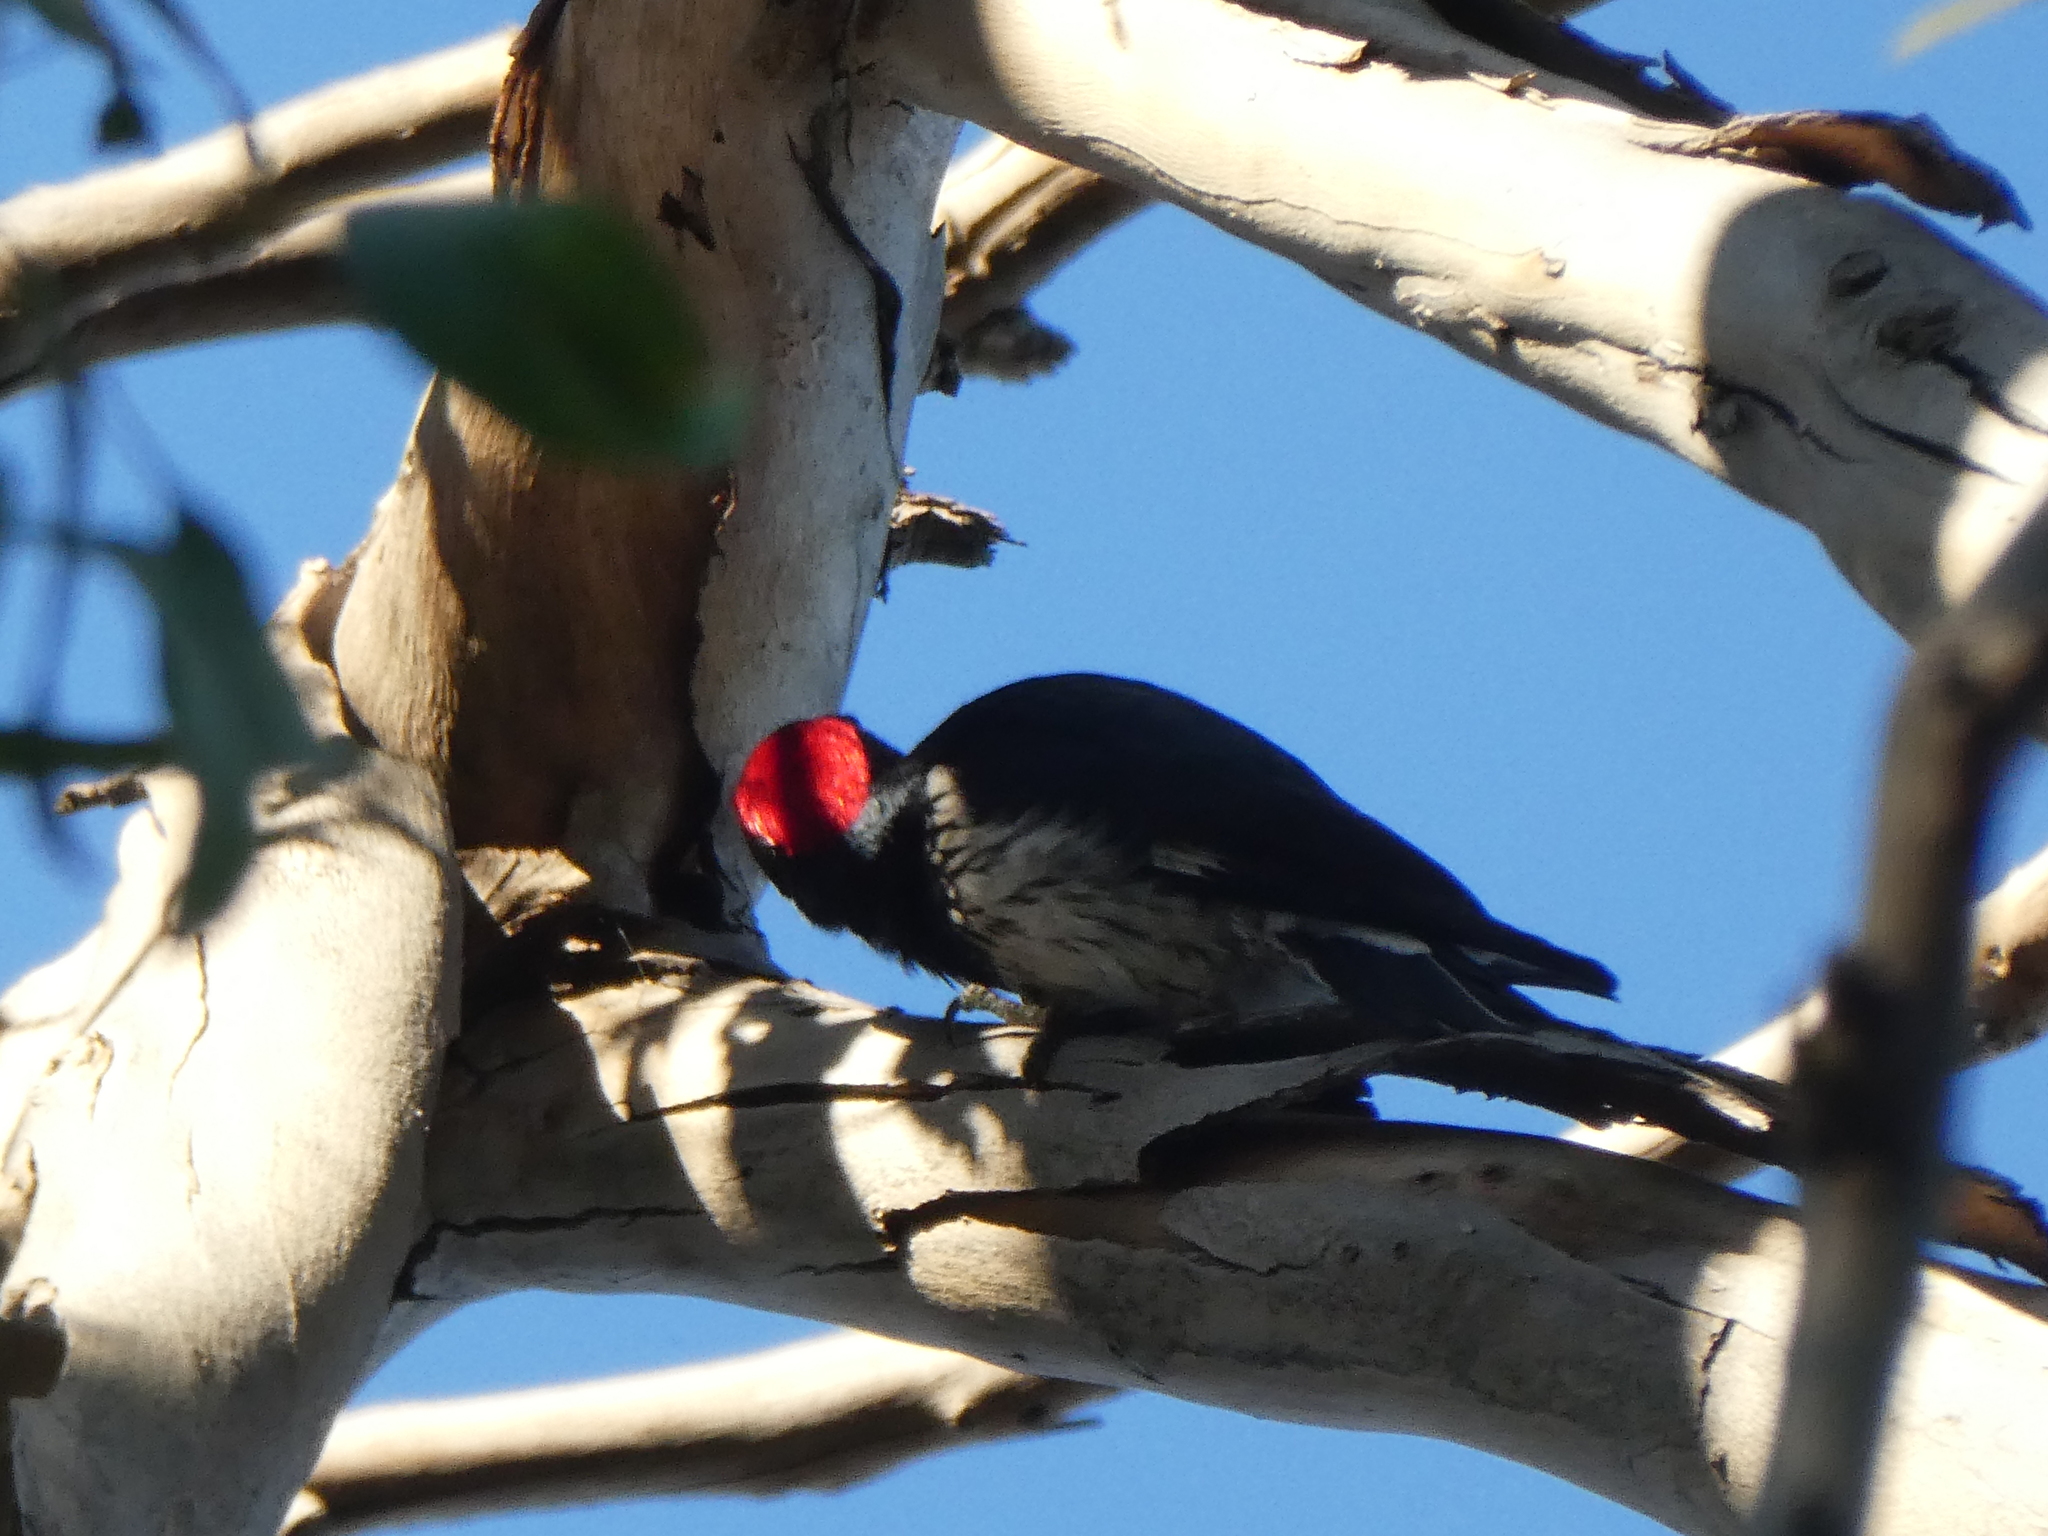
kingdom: Animalia
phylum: Chordata
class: Aves
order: Piciformes
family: Picidae
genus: Melanerpes
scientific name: Melanerpes formicivorus
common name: Acorn woodpecker
